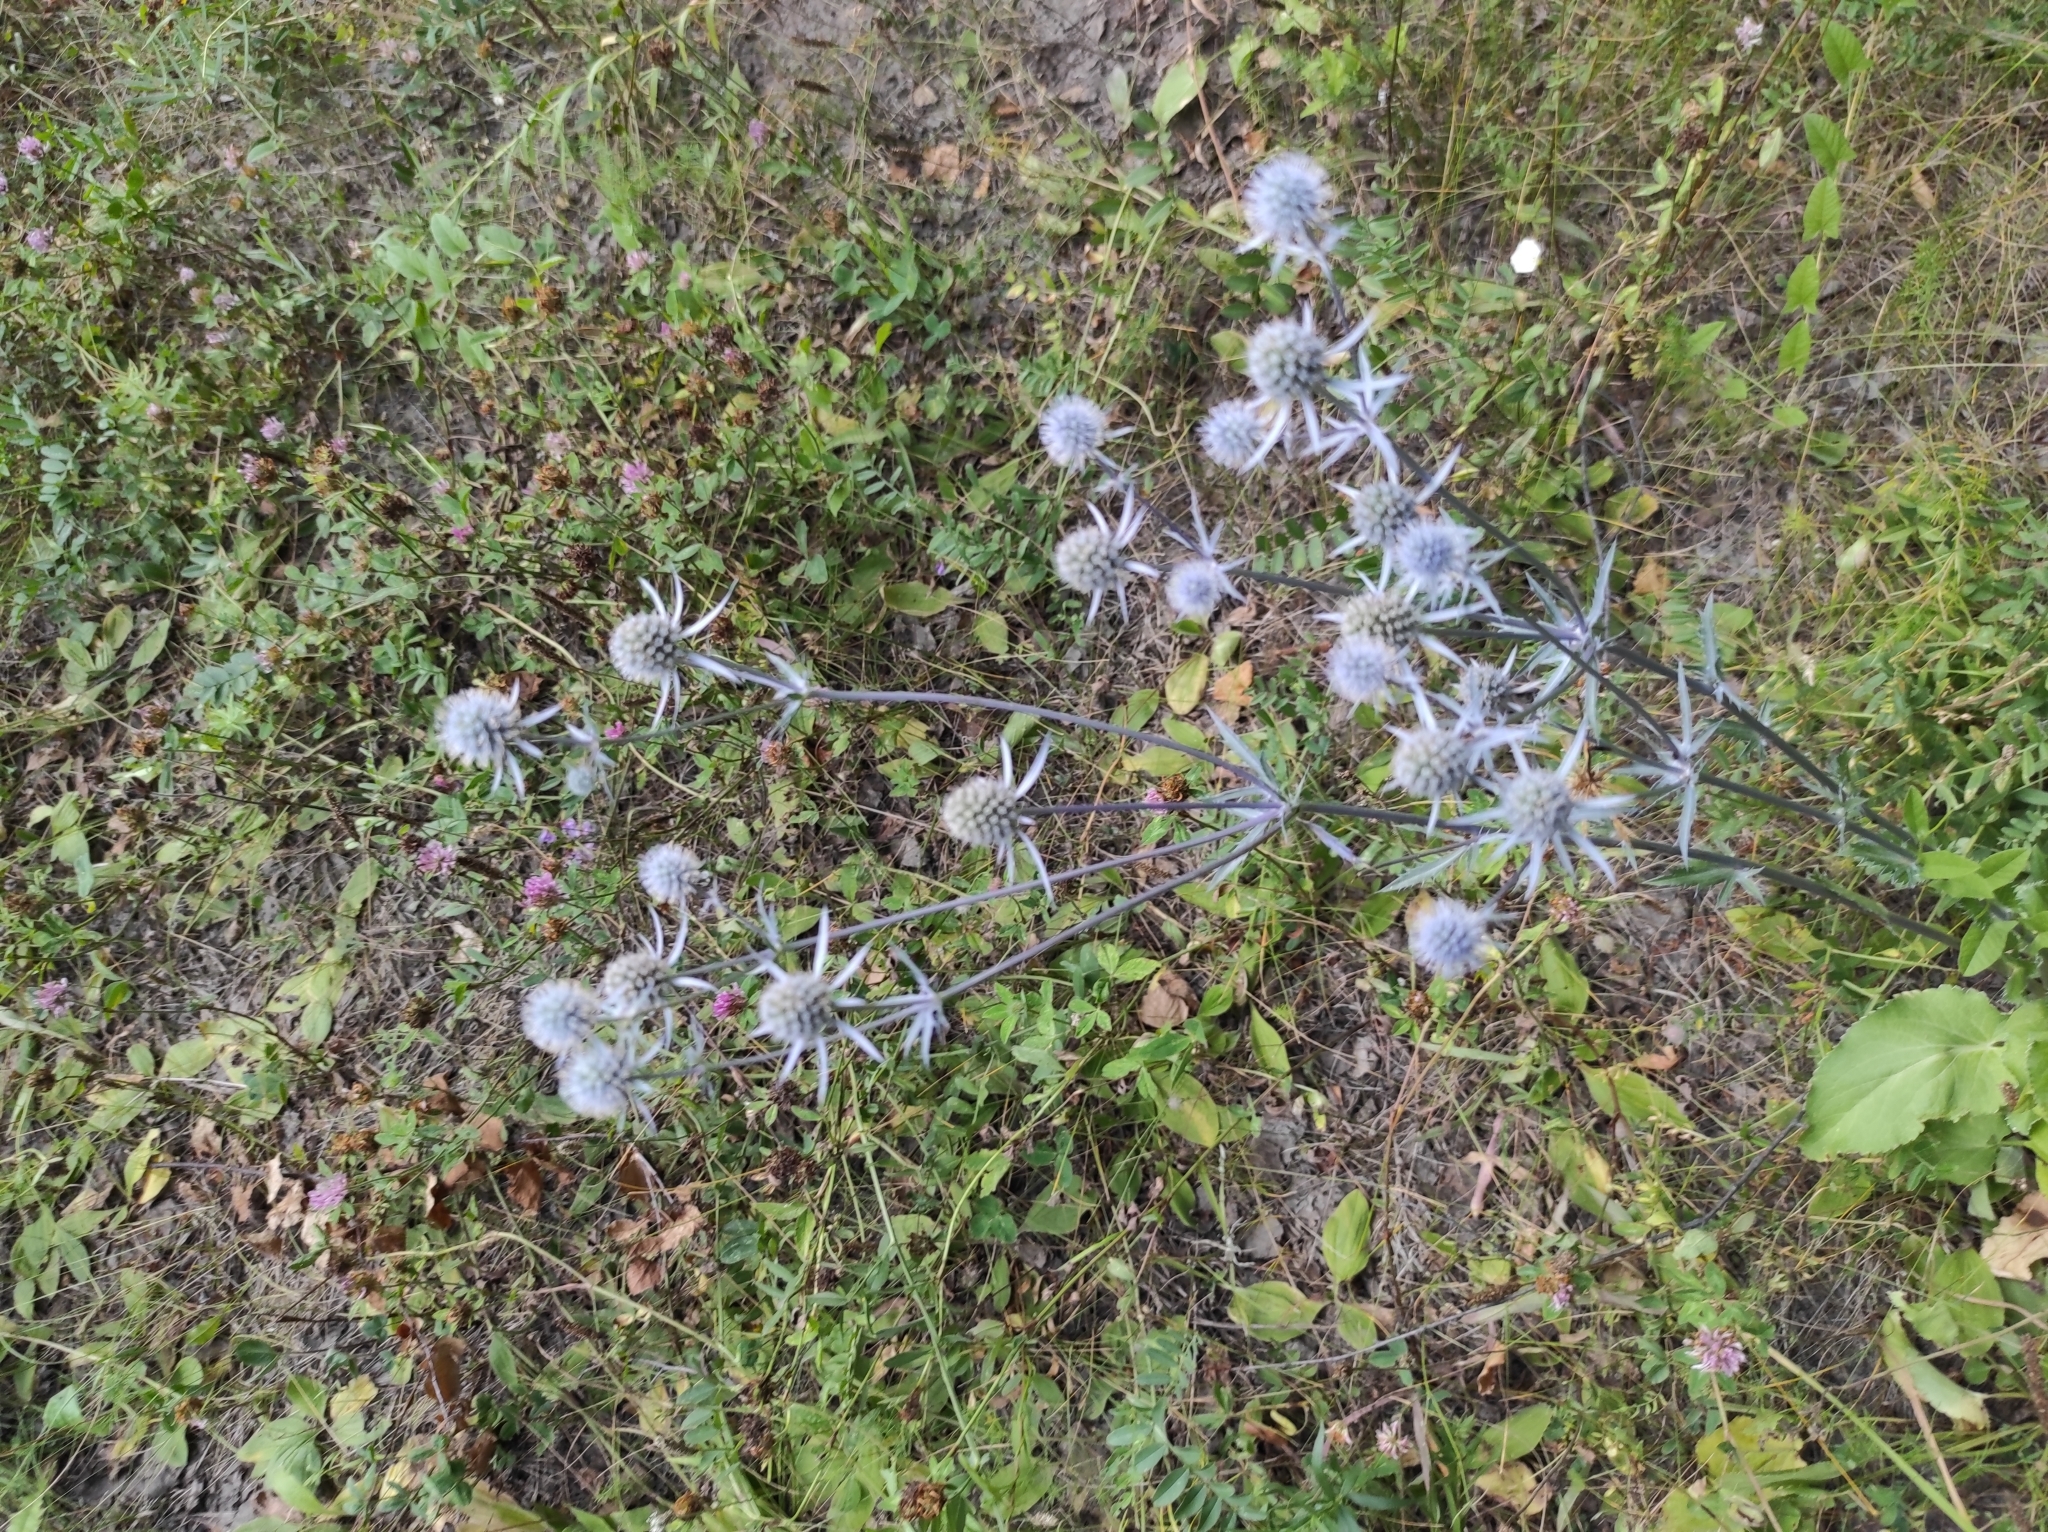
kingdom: Plantae
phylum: Tracheophyta
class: Magnoliopsida
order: Apiales
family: Apiaceae
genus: Eryngium
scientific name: Eryngium planum
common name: Blue eryngo
